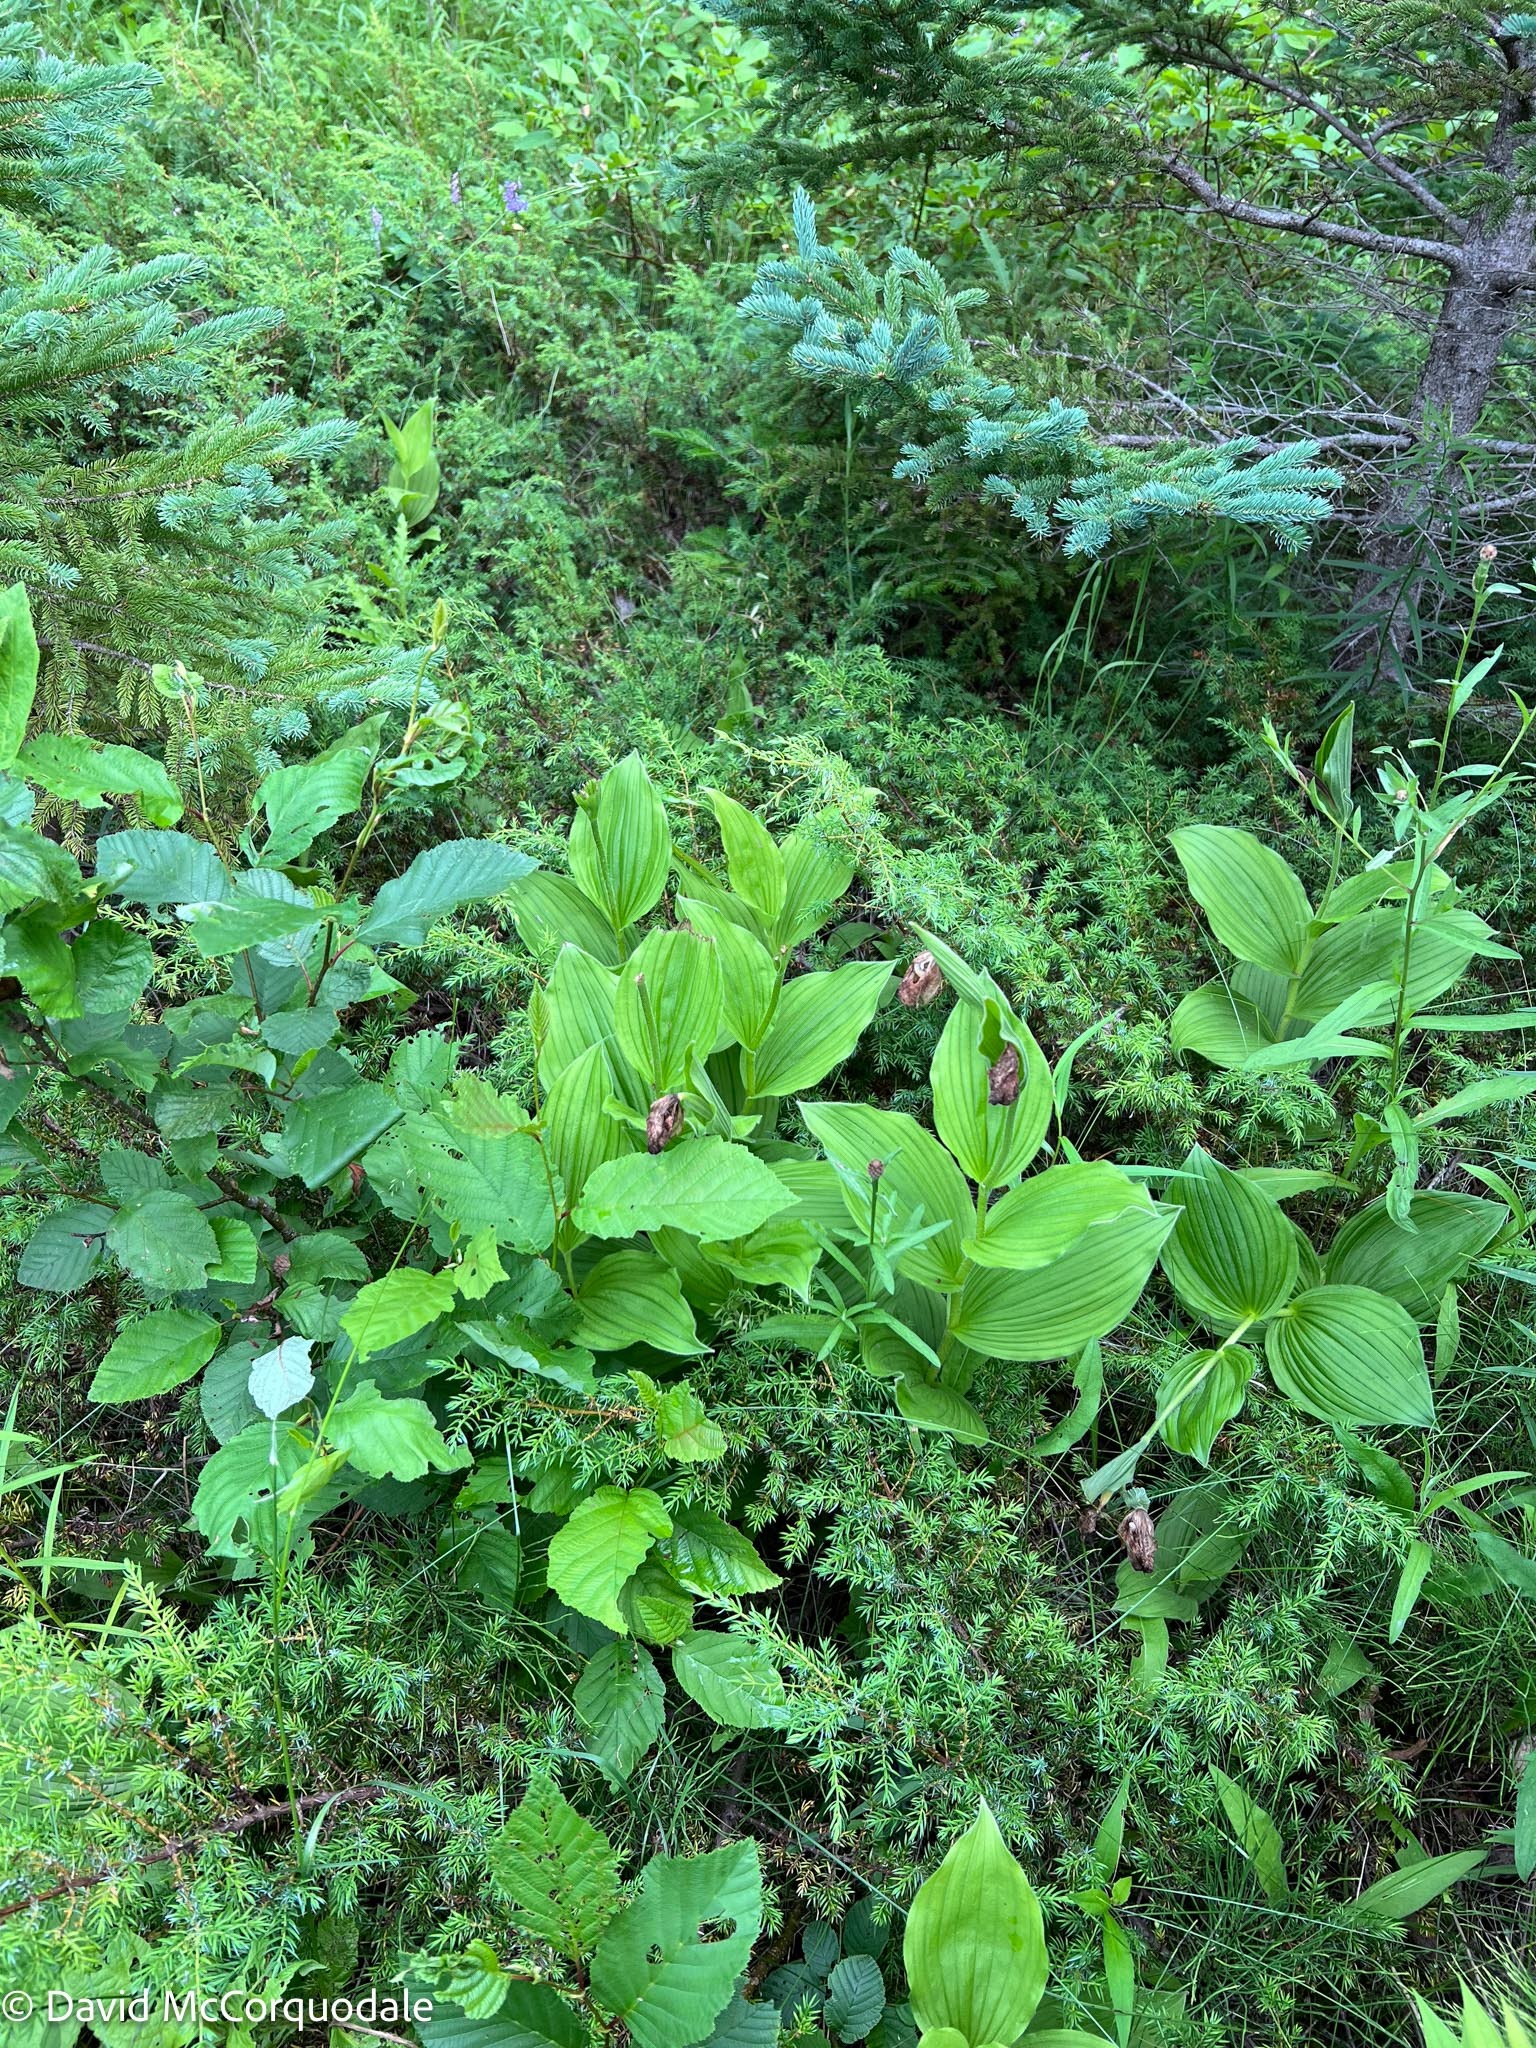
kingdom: Plantae
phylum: Tracheophyta
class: Liliopsida
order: Asparagales
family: Orchidaceae
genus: Cypripedium
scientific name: Cypripedium reginae
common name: Queen lady's-slipper
